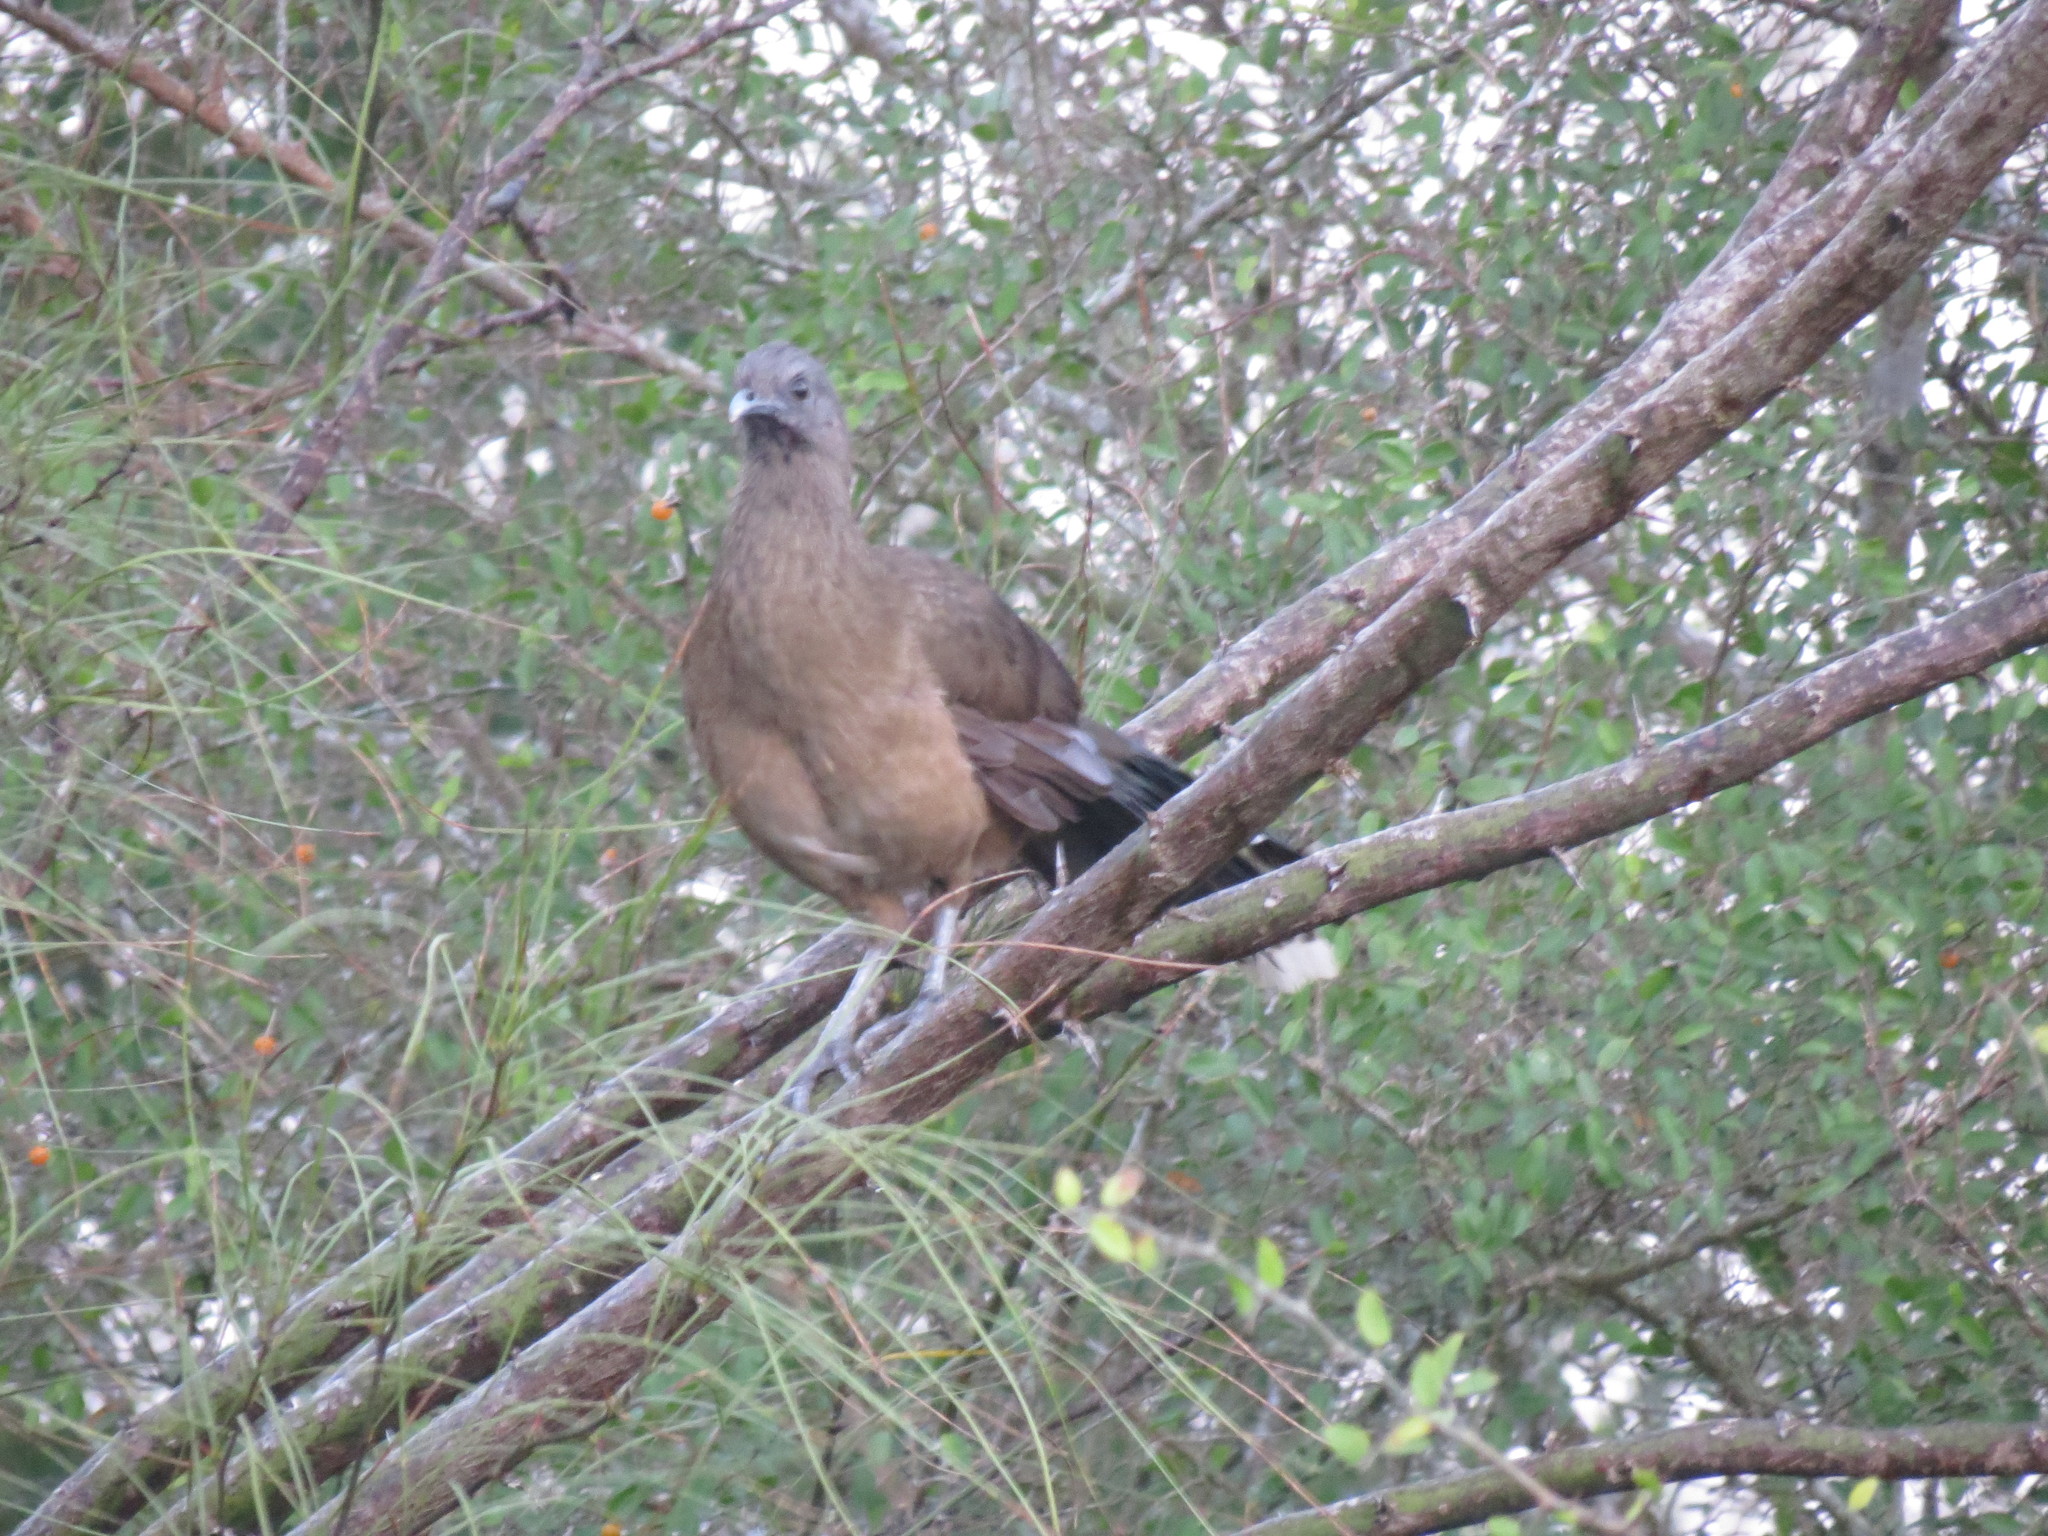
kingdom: Animalia
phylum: Chordata
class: Aves
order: Galliformes
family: Cracidae
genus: Ortalis
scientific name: Ortalis vetula
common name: Plain chachalaca
